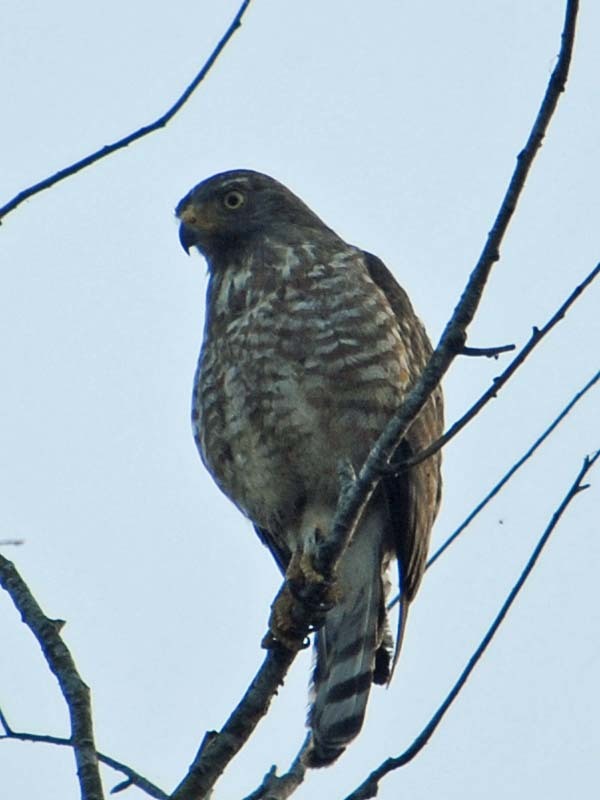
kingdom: Animalia
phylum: Chordata
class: Aves
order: Accipitriformes
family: Accipitridae
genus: Rupornis
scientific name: Rupornis magnirostris
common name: Roadside hawk
